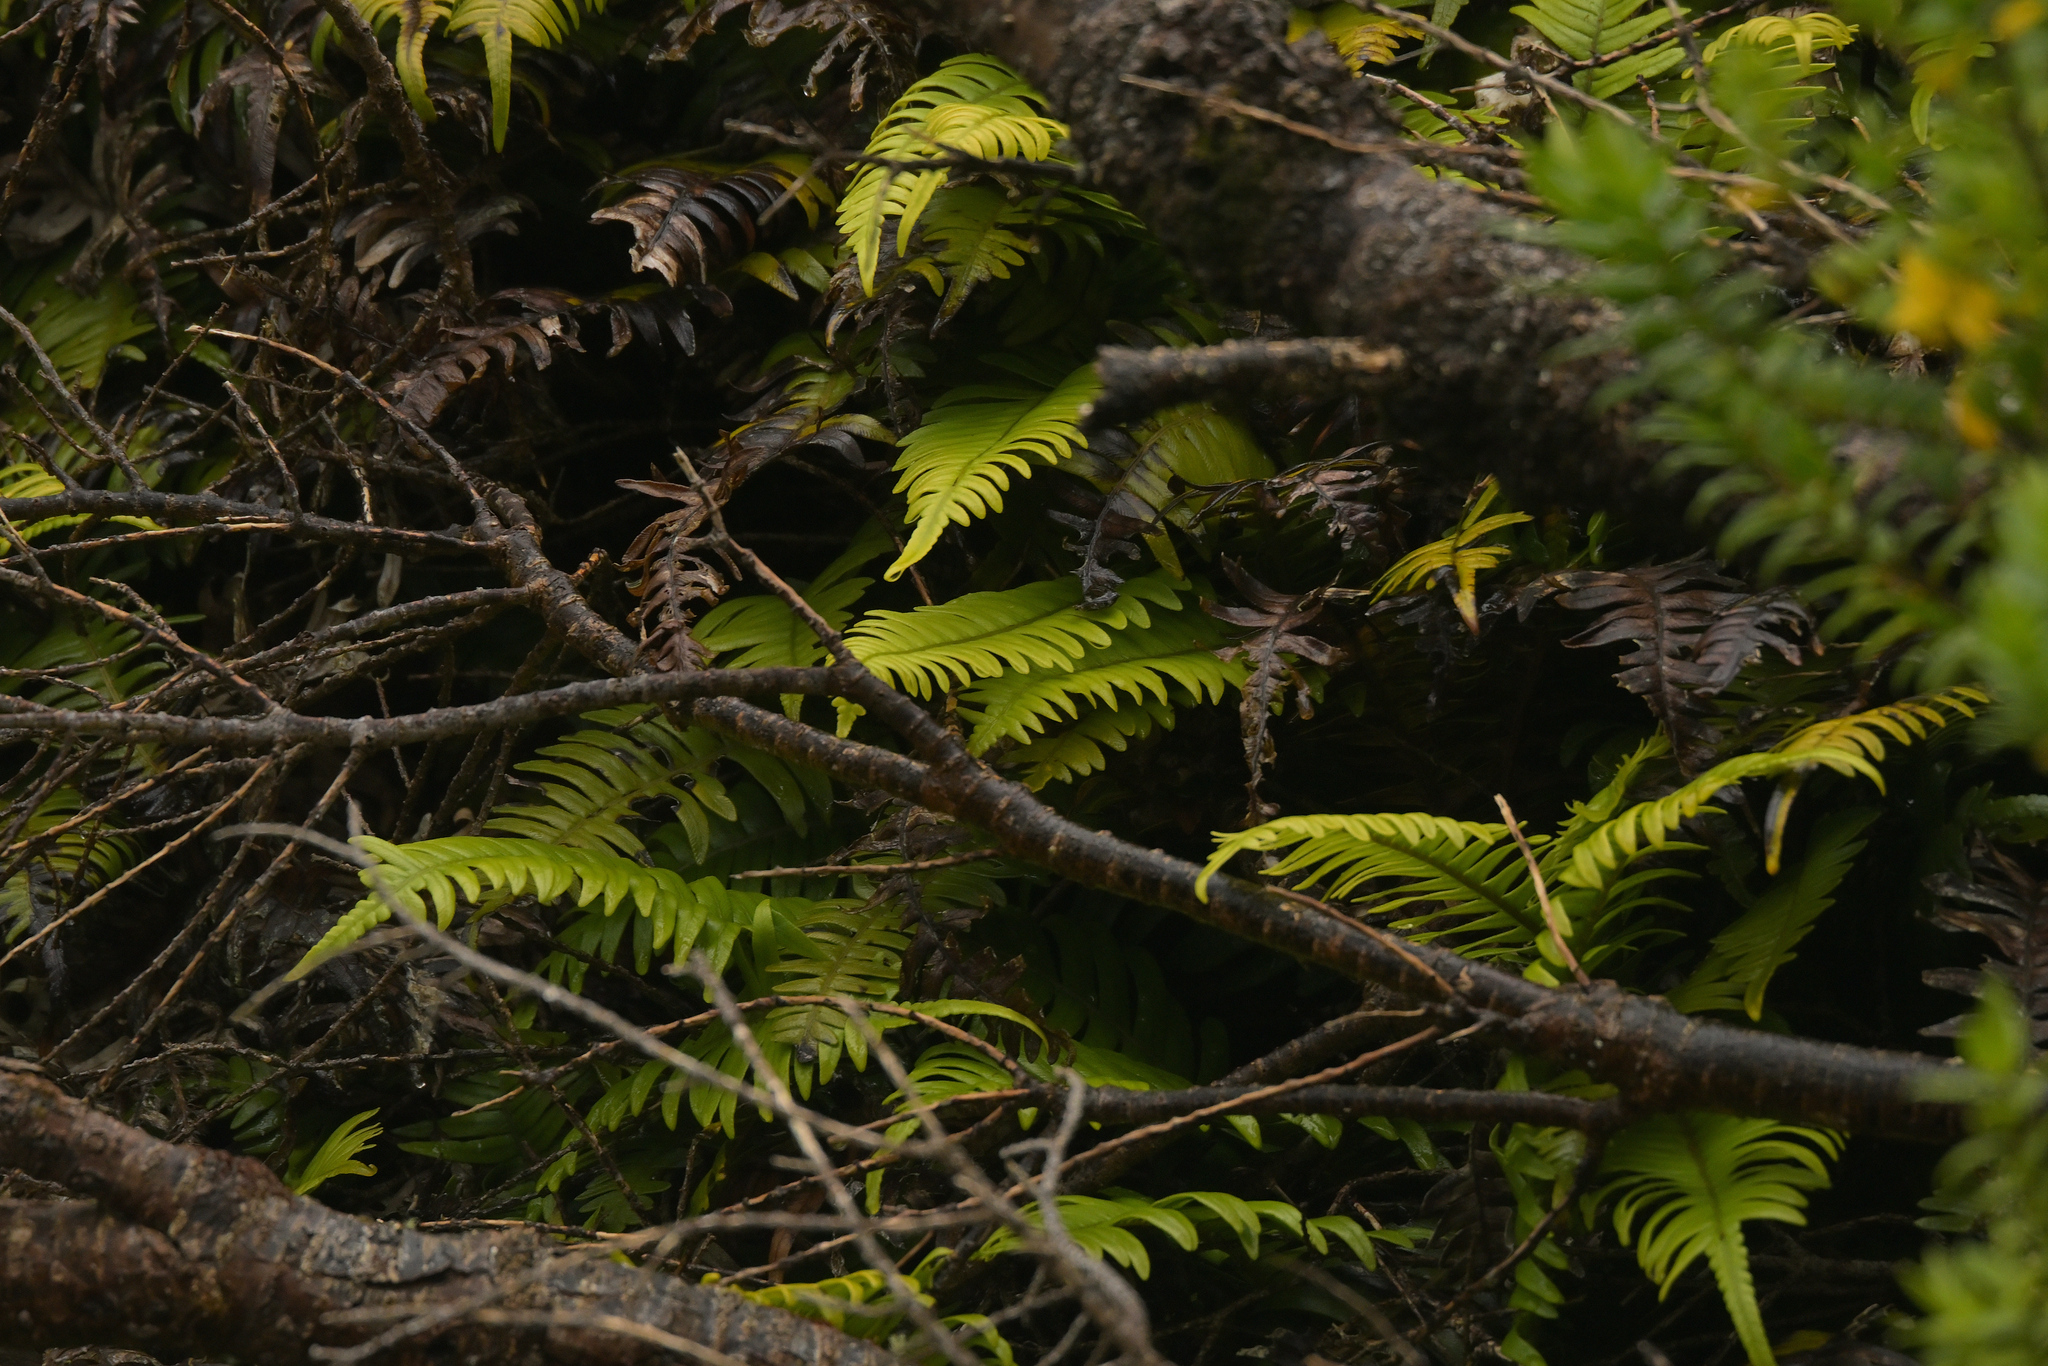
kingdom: Plantae
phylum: Tracheophyta
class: Polypodiopsida
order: Polypodiales
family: Blechnaceae
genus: Austroblechnum
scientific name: Austroblechnum durum
